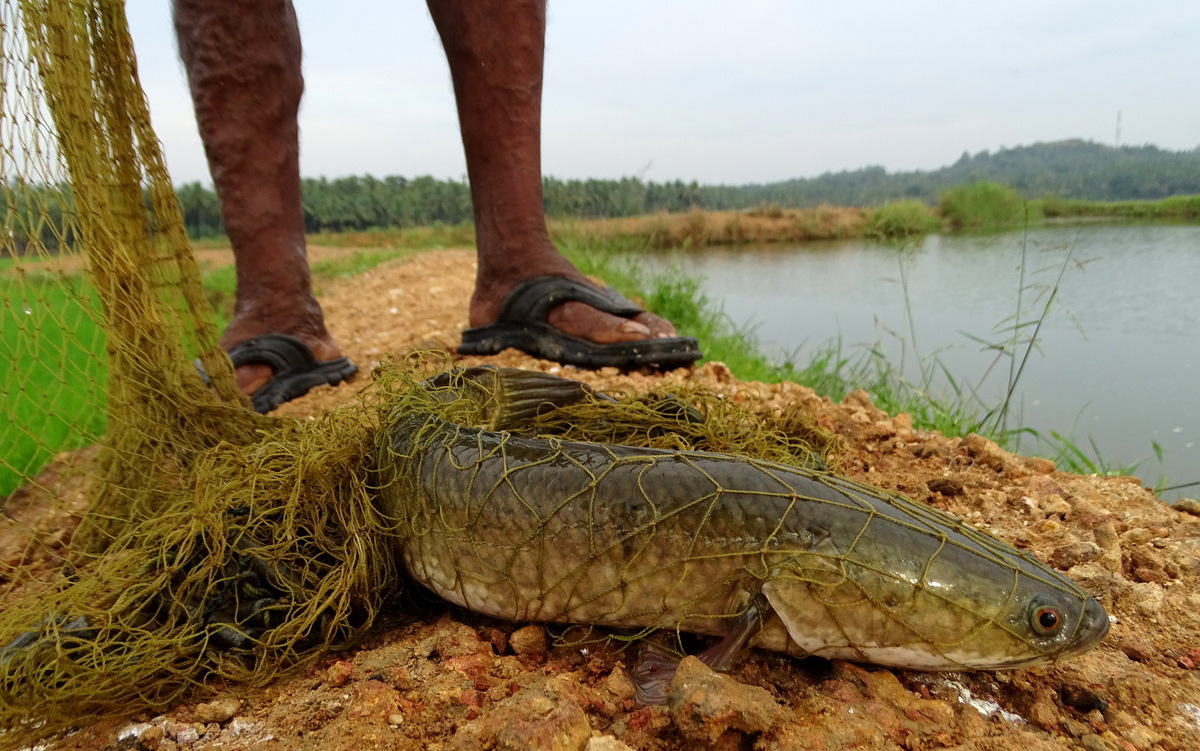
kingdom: Animalia
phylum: Chordata
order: Perciformes
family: Channidae
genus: Channa
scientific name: Channa striata
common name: Striped snakehead
